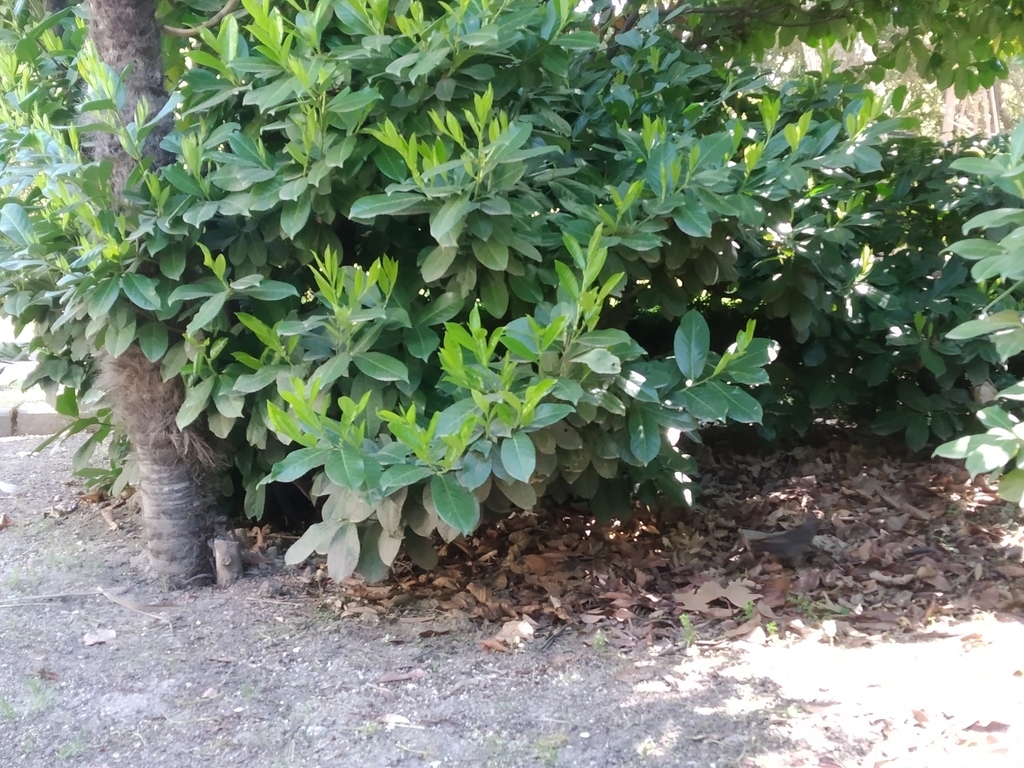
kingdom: Animalia
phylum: Chordata
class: Aves
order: Passeriformes
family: Turdidae
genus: Turdus
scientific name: Turdus merula
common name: Common blackbird
